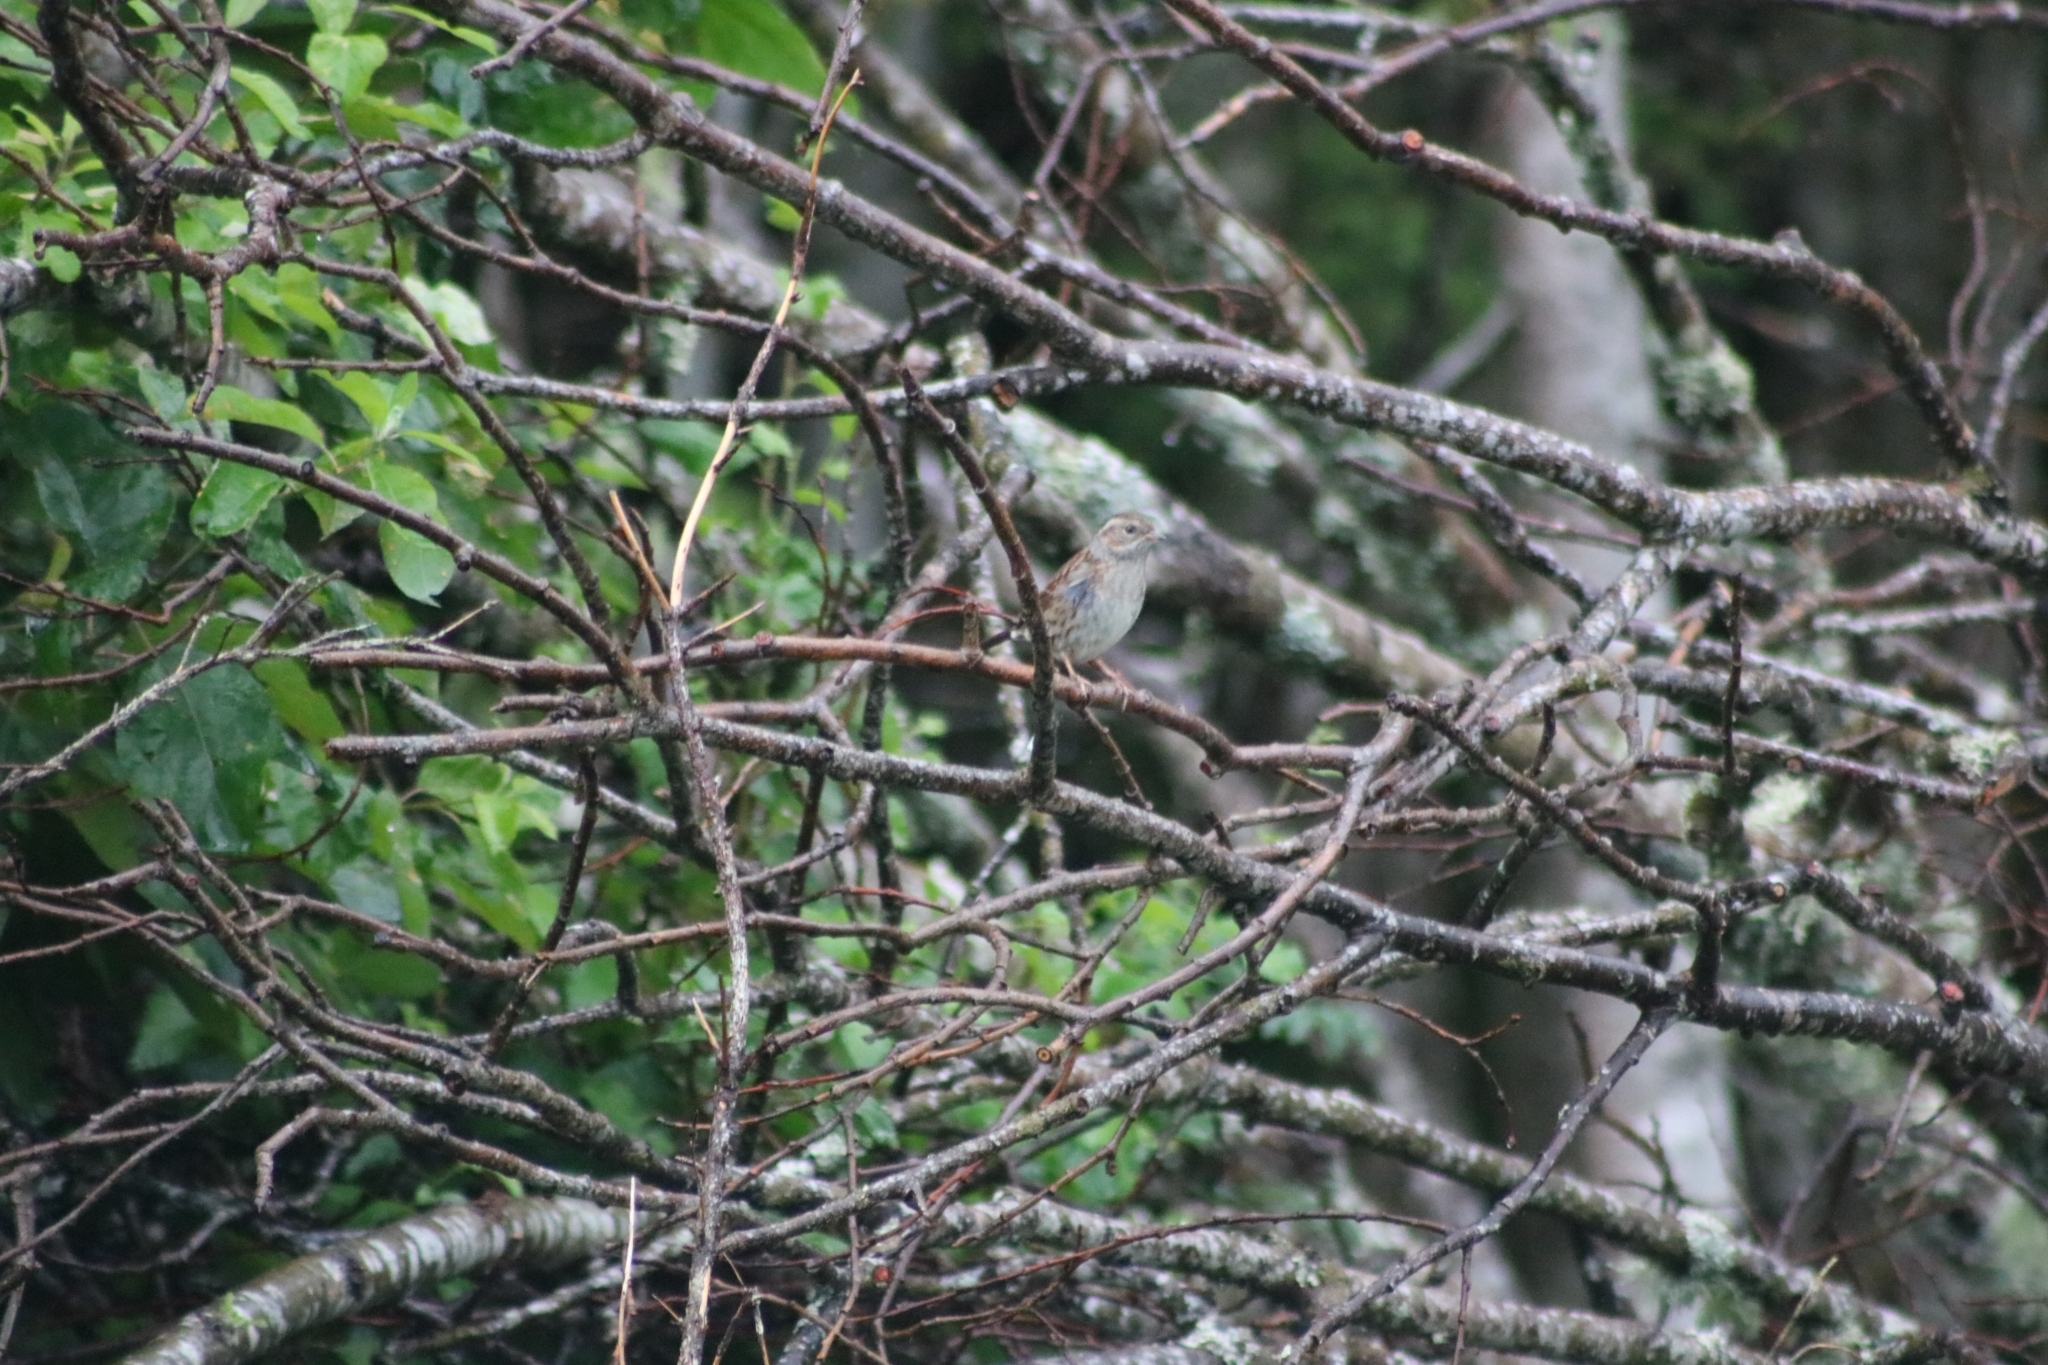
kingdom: Animalia
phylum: Chordata
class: Aves
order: Passeriformes
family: Prunellidae
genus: Prunella
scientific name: Prunella modularis
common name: Dunnock
